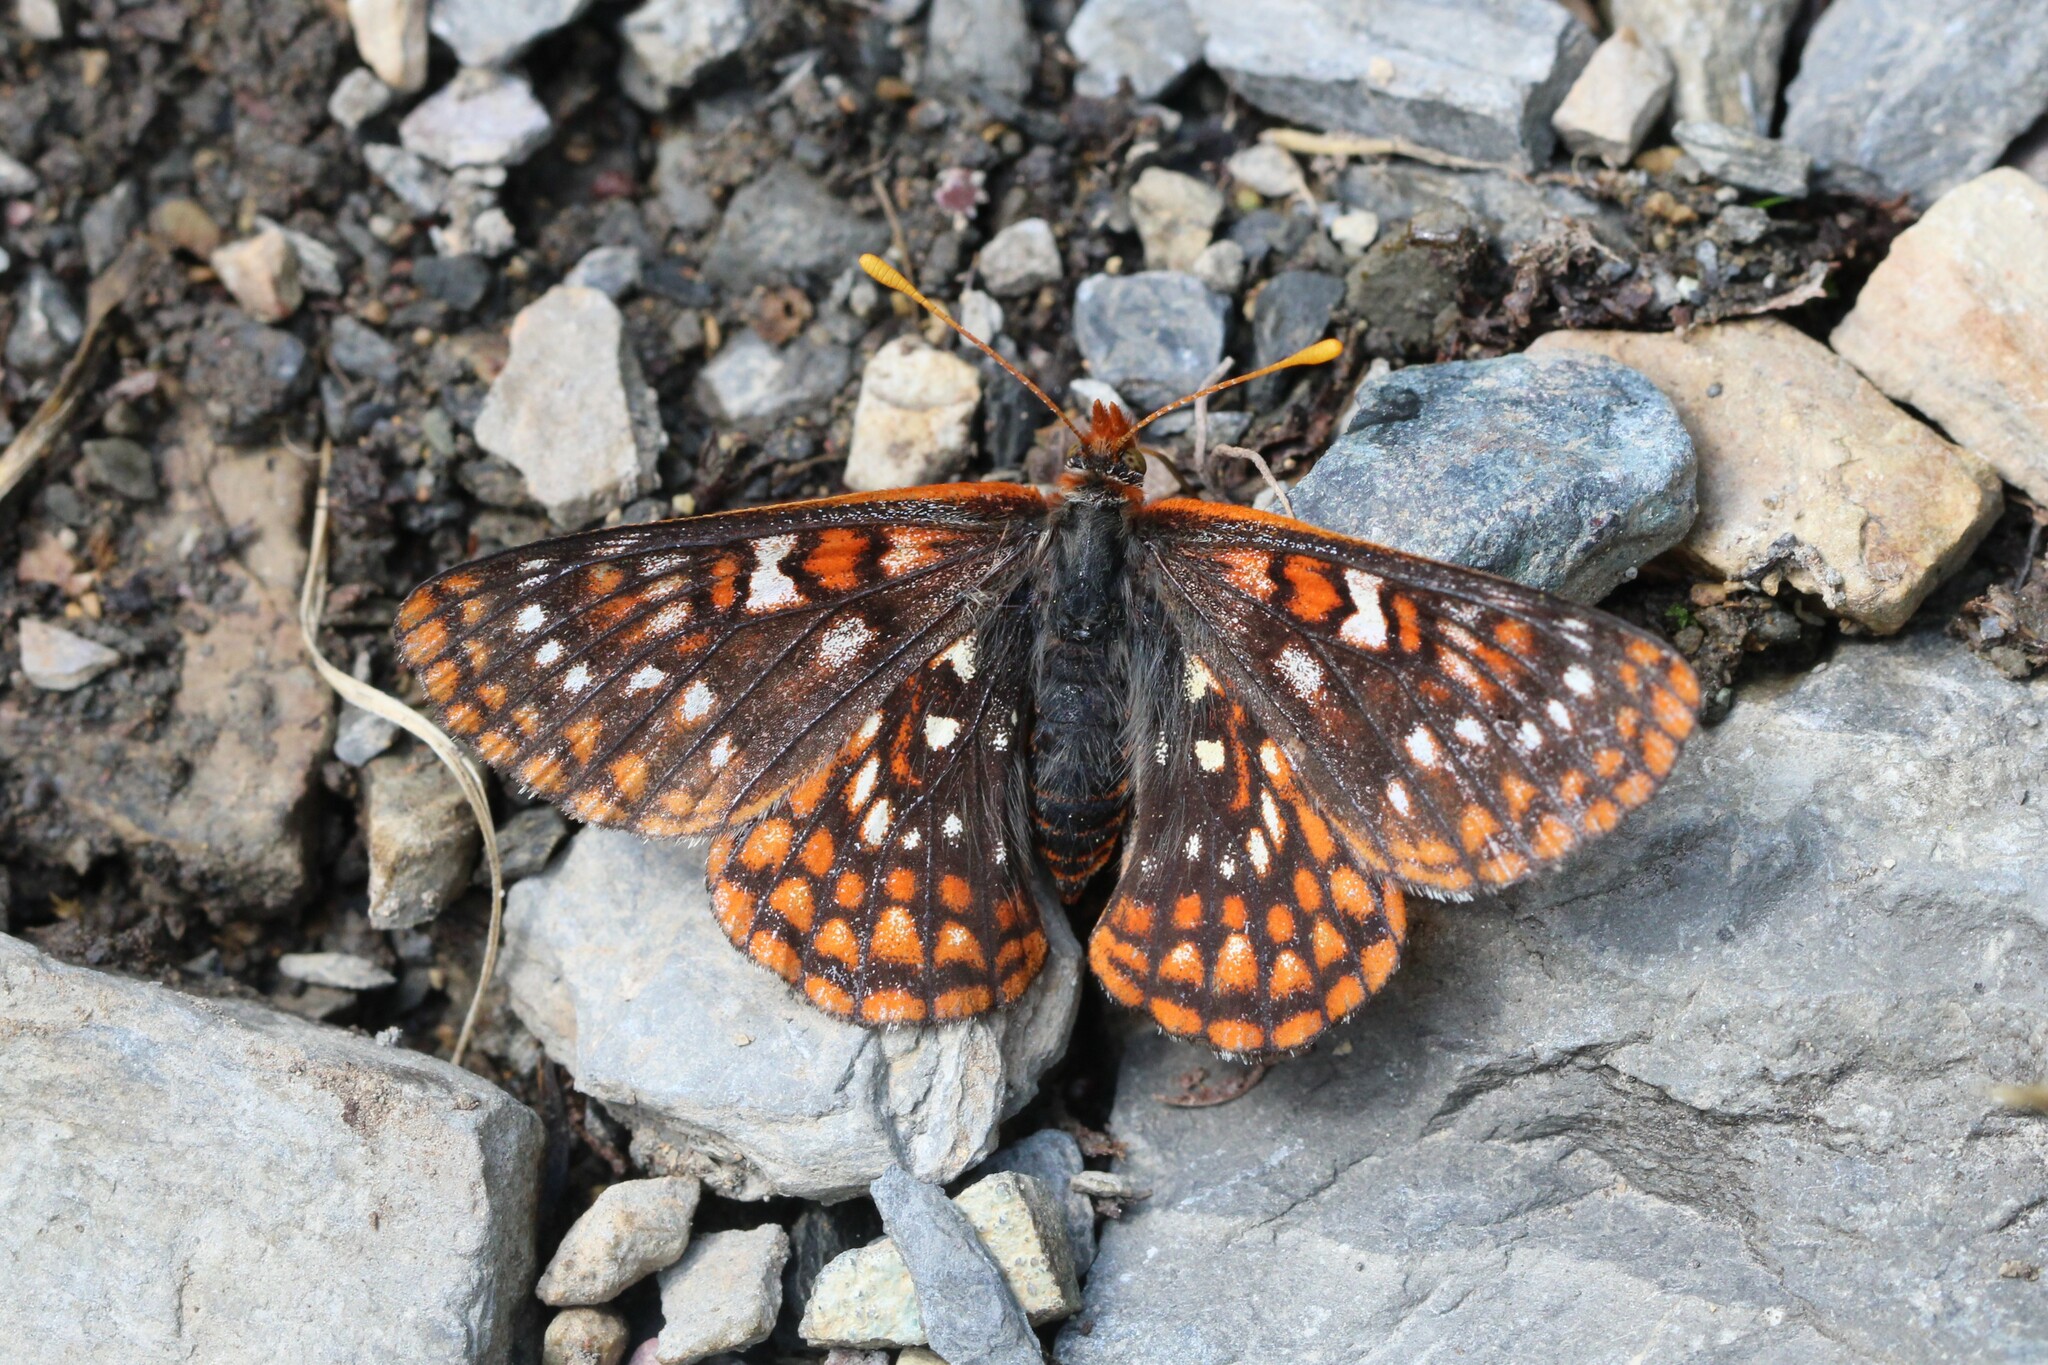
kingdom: Animalia
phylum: Arthropoda
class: Insecta
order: Lepidoptera
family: Nymphalidae
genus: Occidryas
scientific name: Occidryas anicia
